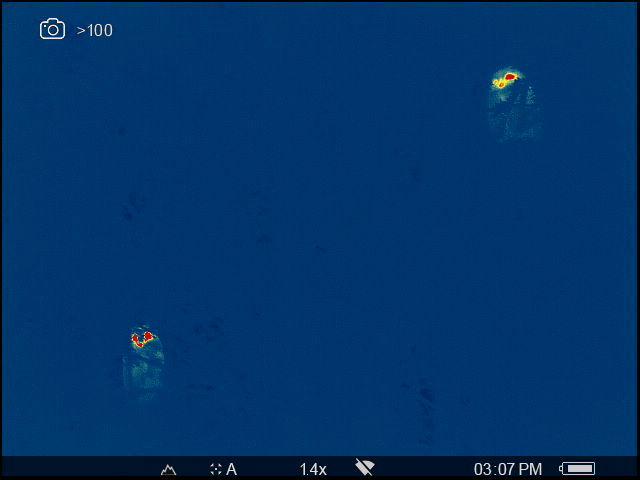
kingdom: Animalia
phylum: Chordata
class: Aves
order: Strigiformes
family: Strigidae
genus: Asio
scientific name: Asio otus
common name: Long-eared owl
